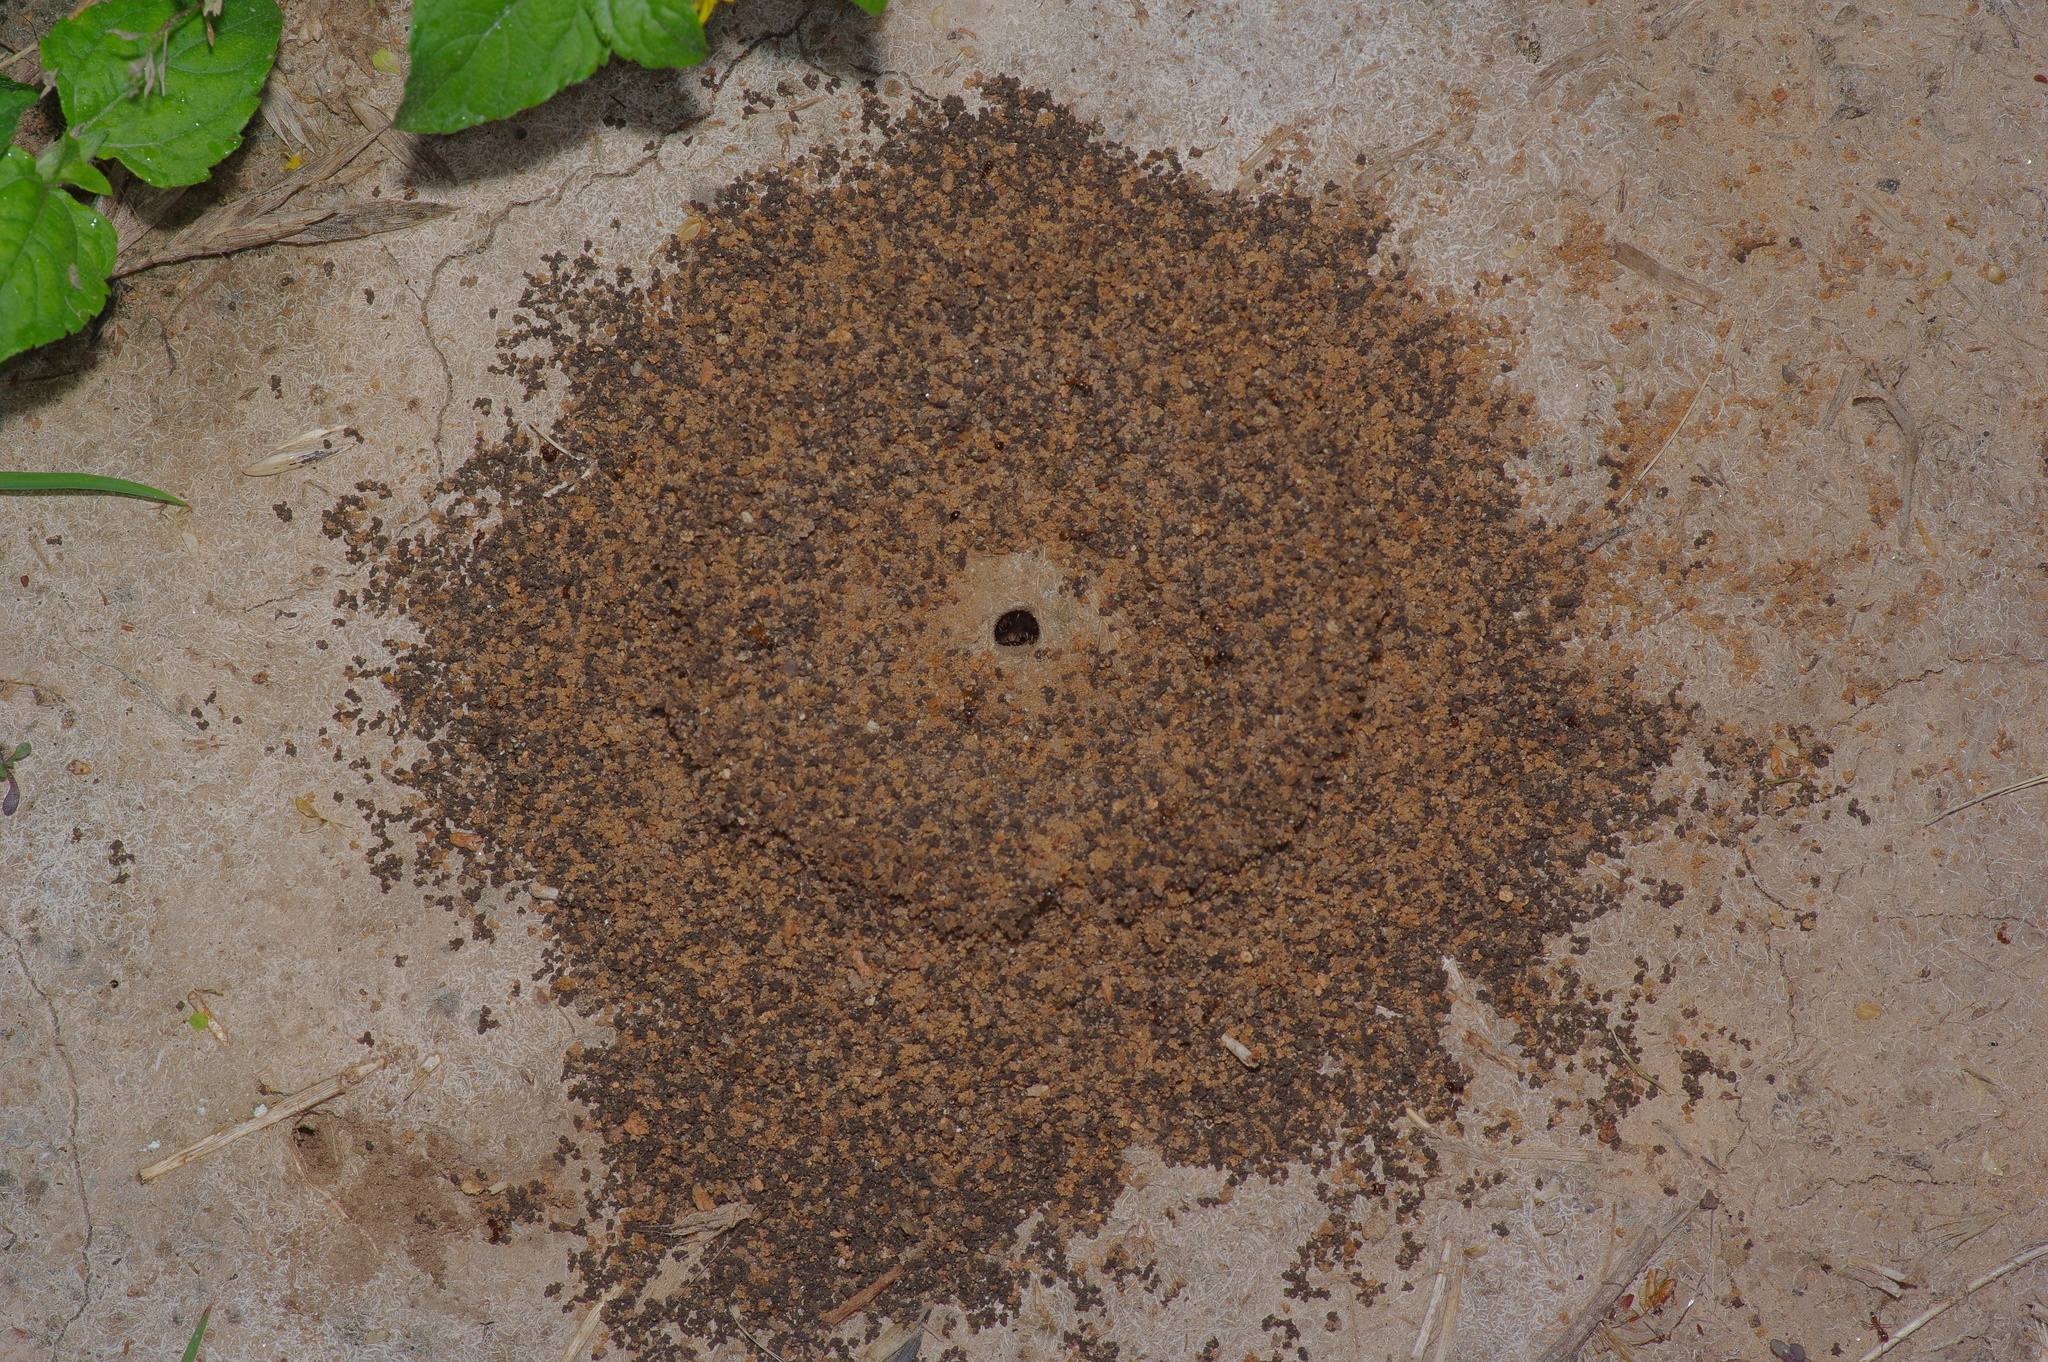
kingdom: Animalia
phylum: Arthropoda
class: Insecta
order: Hymenoptera
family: Formicidae
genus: Dorymyrmex
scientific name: Dorymyrmex flavus
